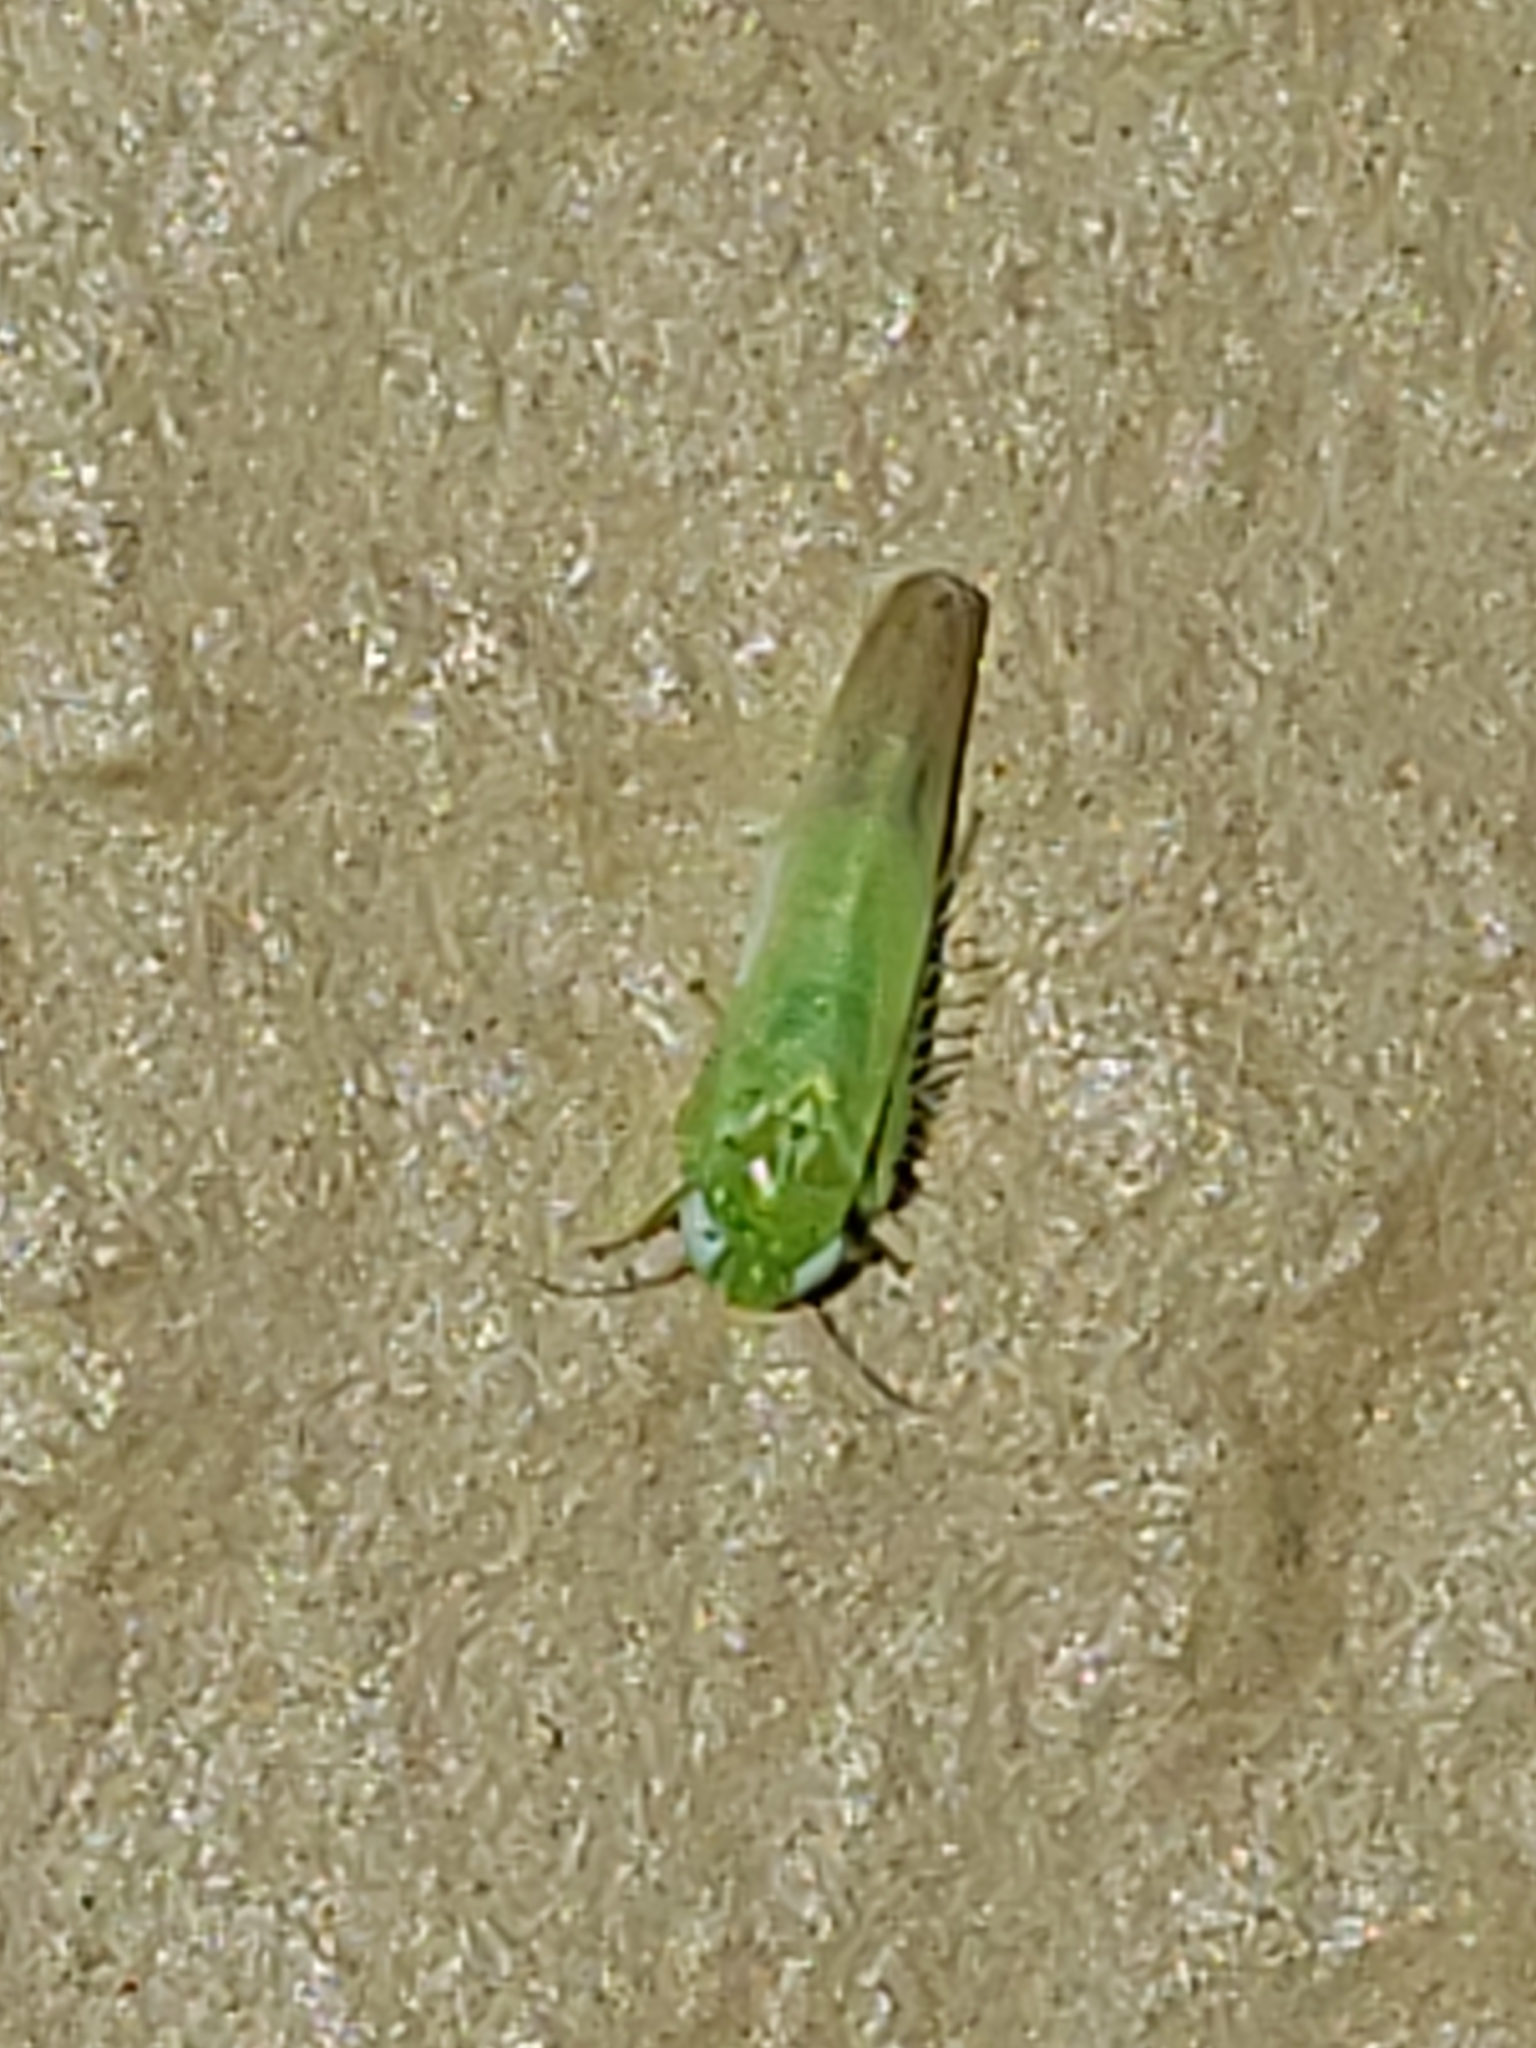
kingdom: Animalia
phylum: Arthropoda
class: Insecta
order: Hemiptera
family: Cicadellidae
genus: Empoasca
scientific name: Empoasca fabae
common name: Potato leafhopper
